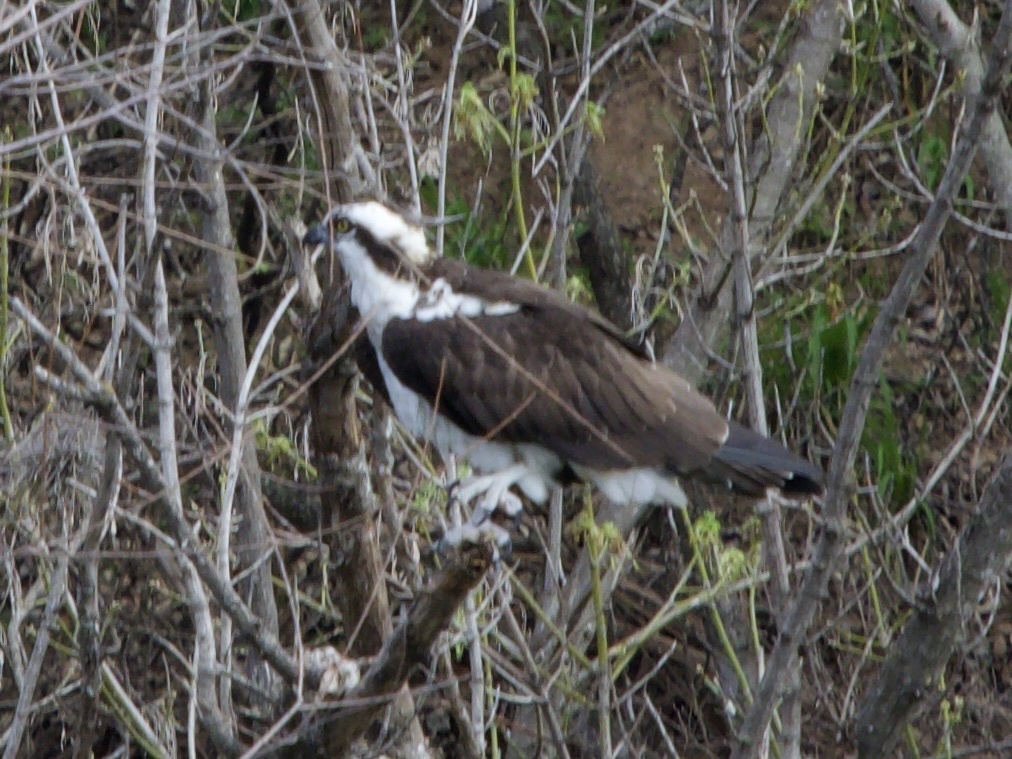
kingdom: Animalia
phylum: Chordata
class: Aves
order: Accipitriformes
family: Pandionidae
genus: Pandion
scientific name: Pandion haliaetus
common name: Osprey
